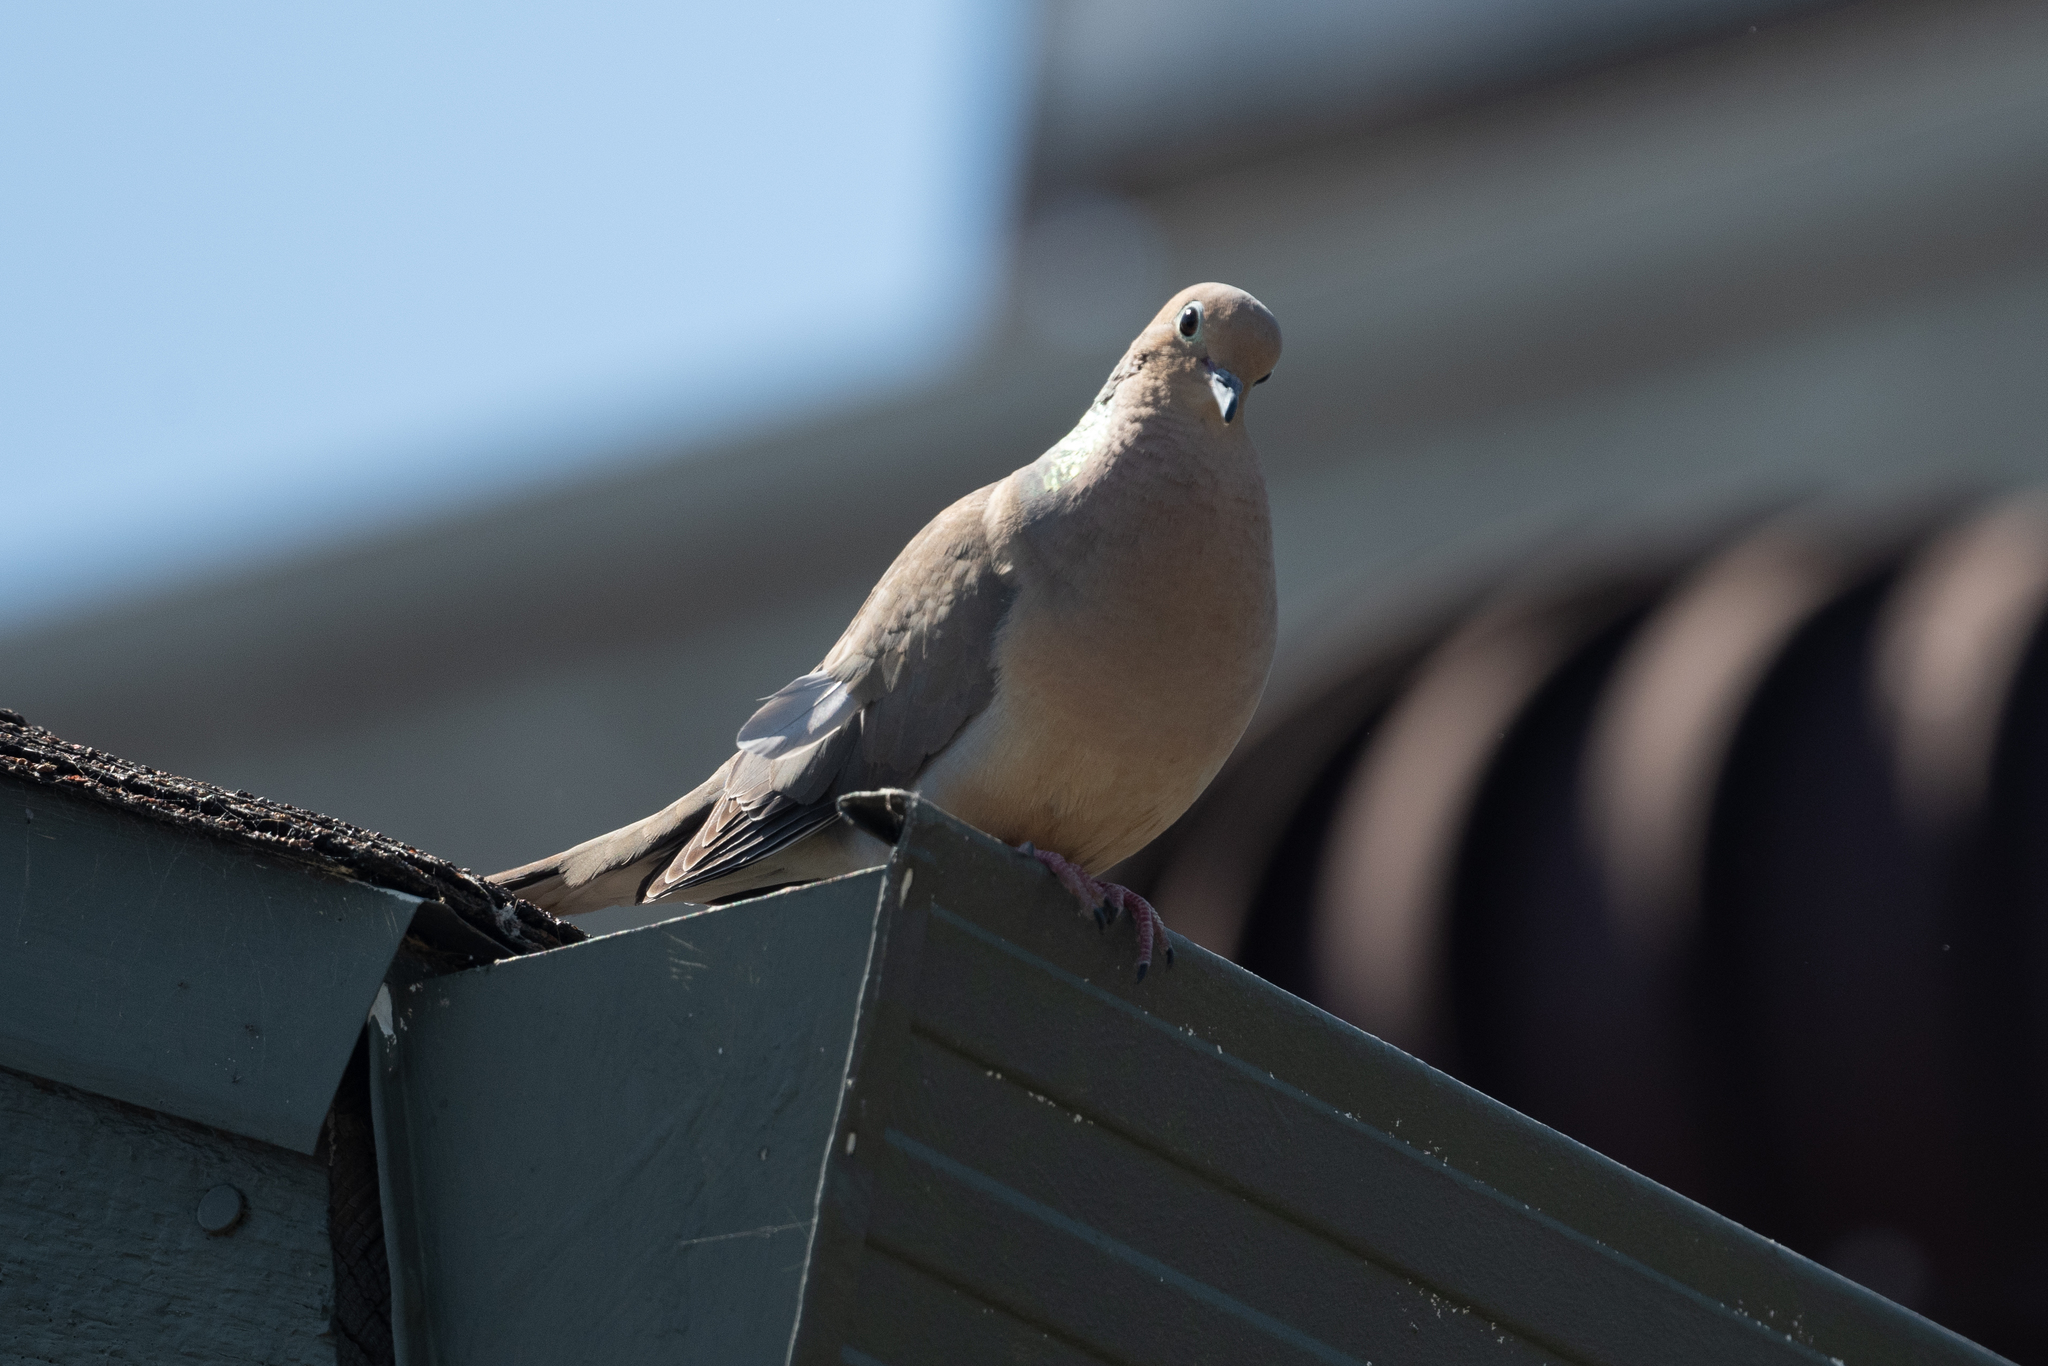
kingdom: Animalia
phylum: Chordata
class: Aves
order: Columbiformes
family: Columbidae
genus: Zenaida
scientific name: Zenaida macroura
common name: Mourning dove
